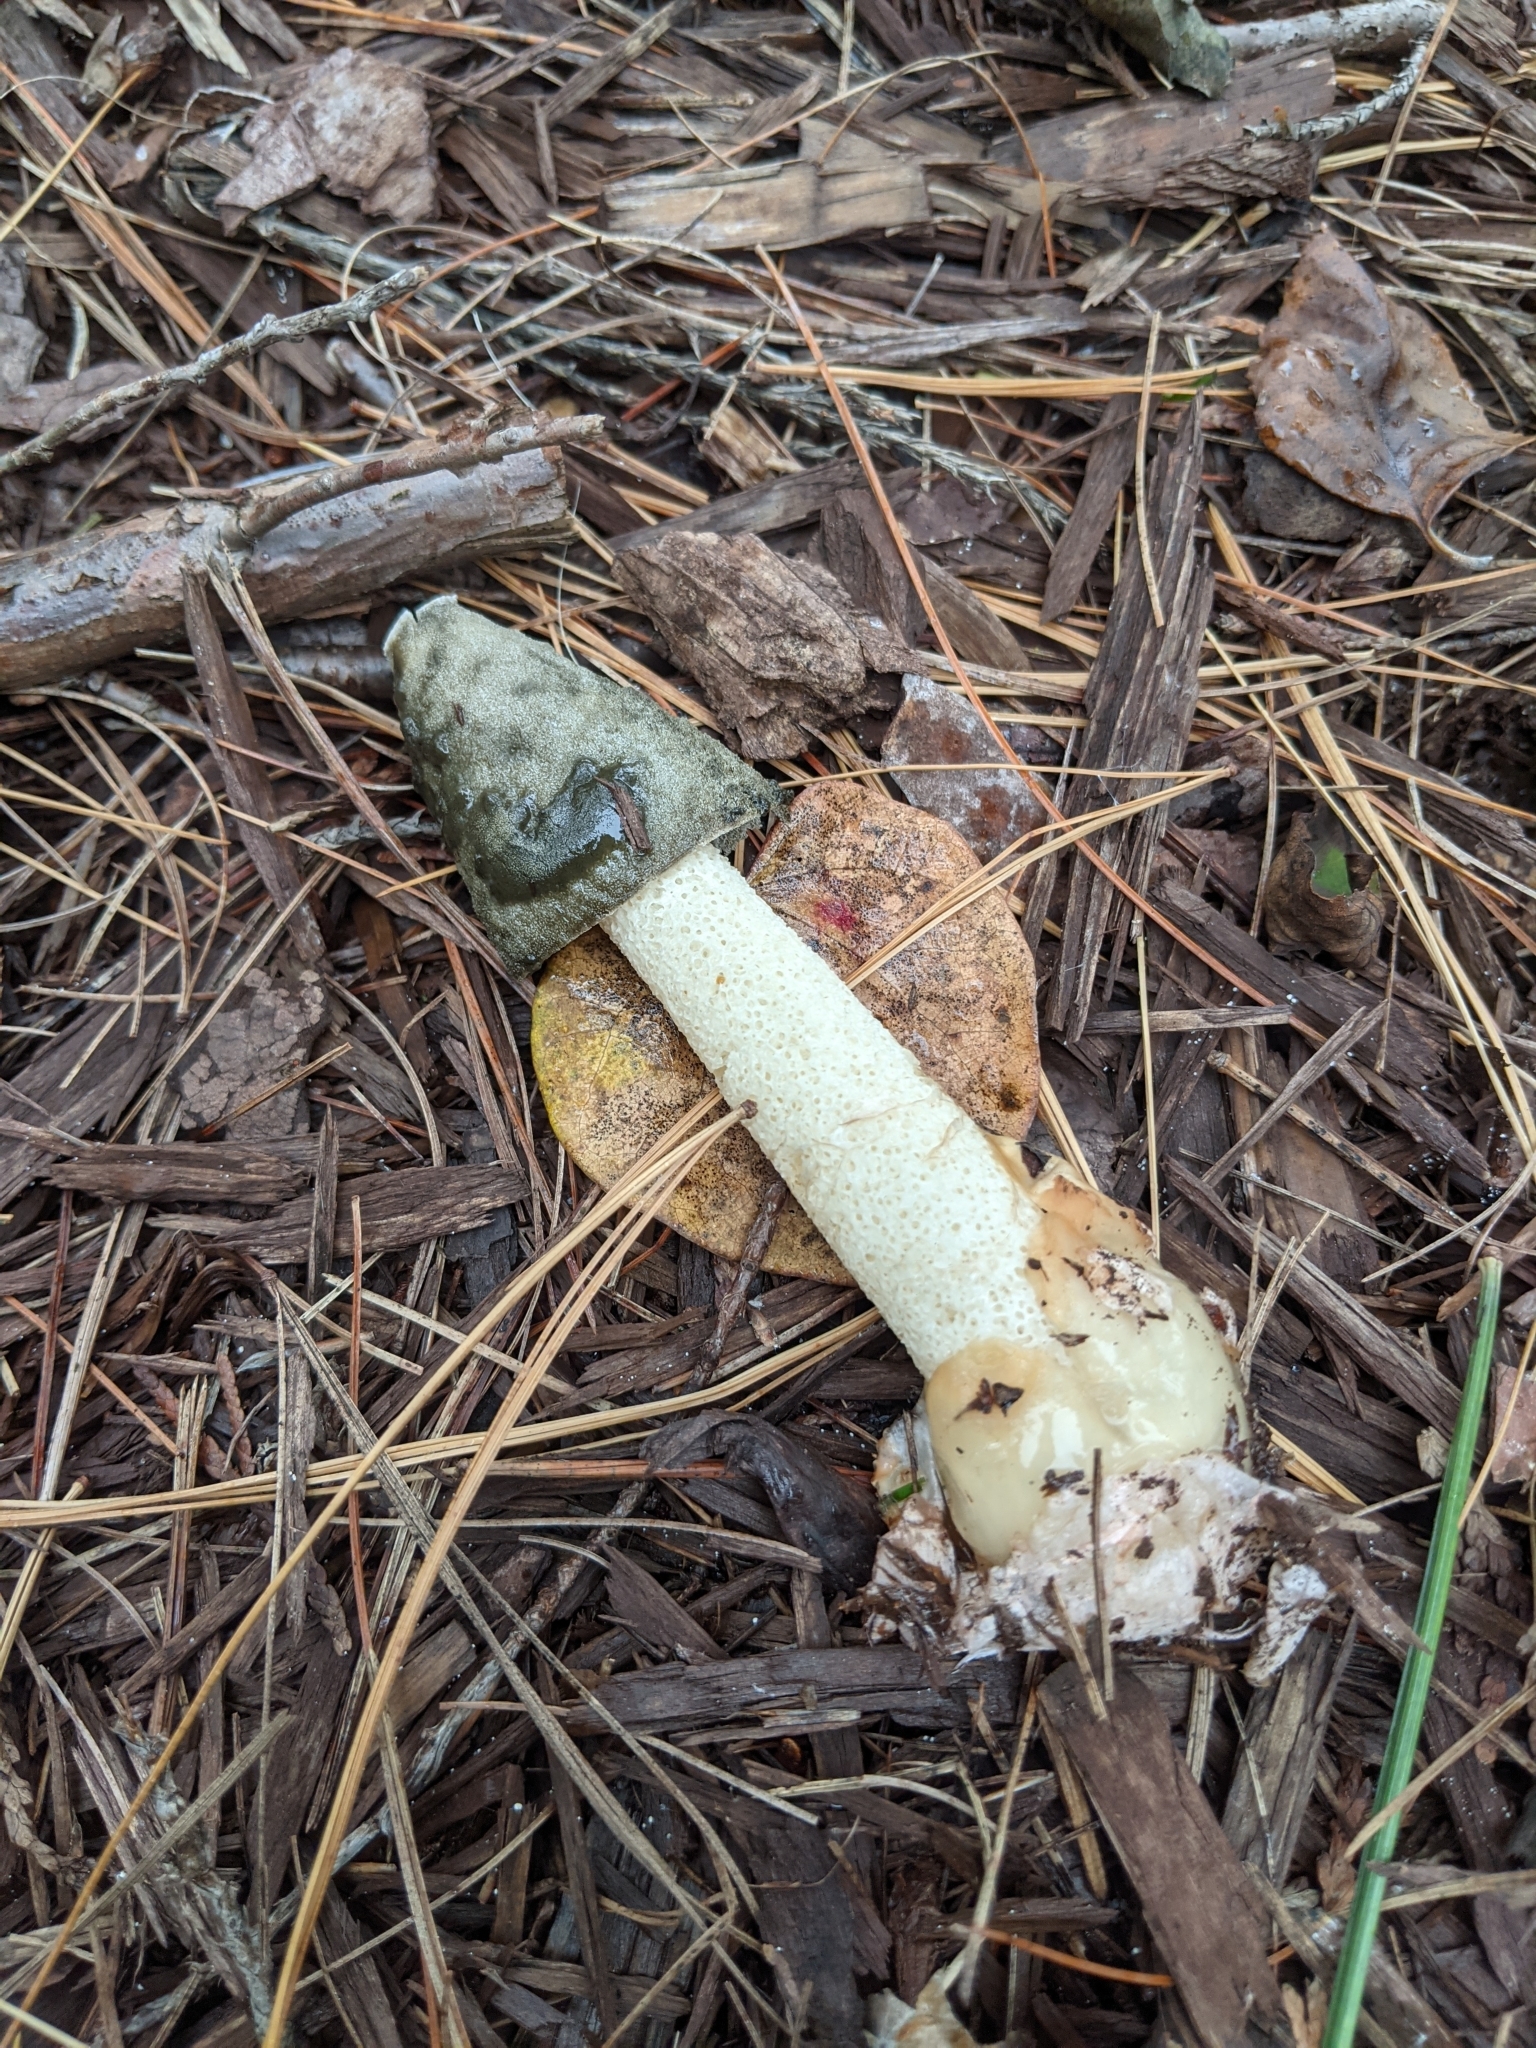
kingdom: Fungi
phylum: Basidiomycota
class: Agaricomycetes
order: Phallales
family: Phallaceae
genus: Phallus
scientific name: Phallus ravenelii
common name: Ravenel's stinkhorn
